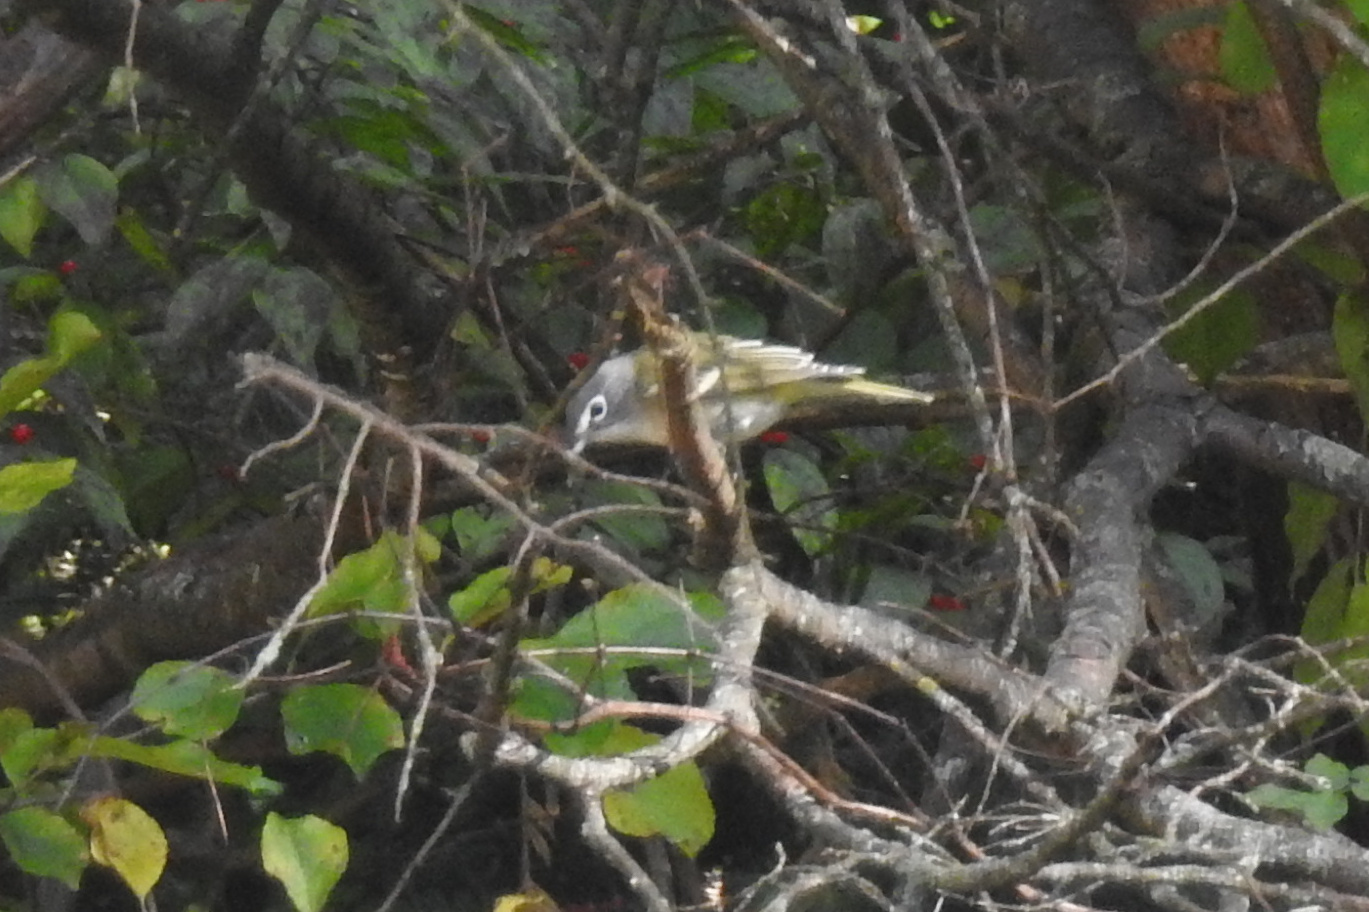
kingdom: Animalia
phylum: Chordata
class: Aves
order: Passeriformes
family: Vireonidae
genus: Vireo
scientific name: Vireo solitarius
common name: Blue-headed vireo
